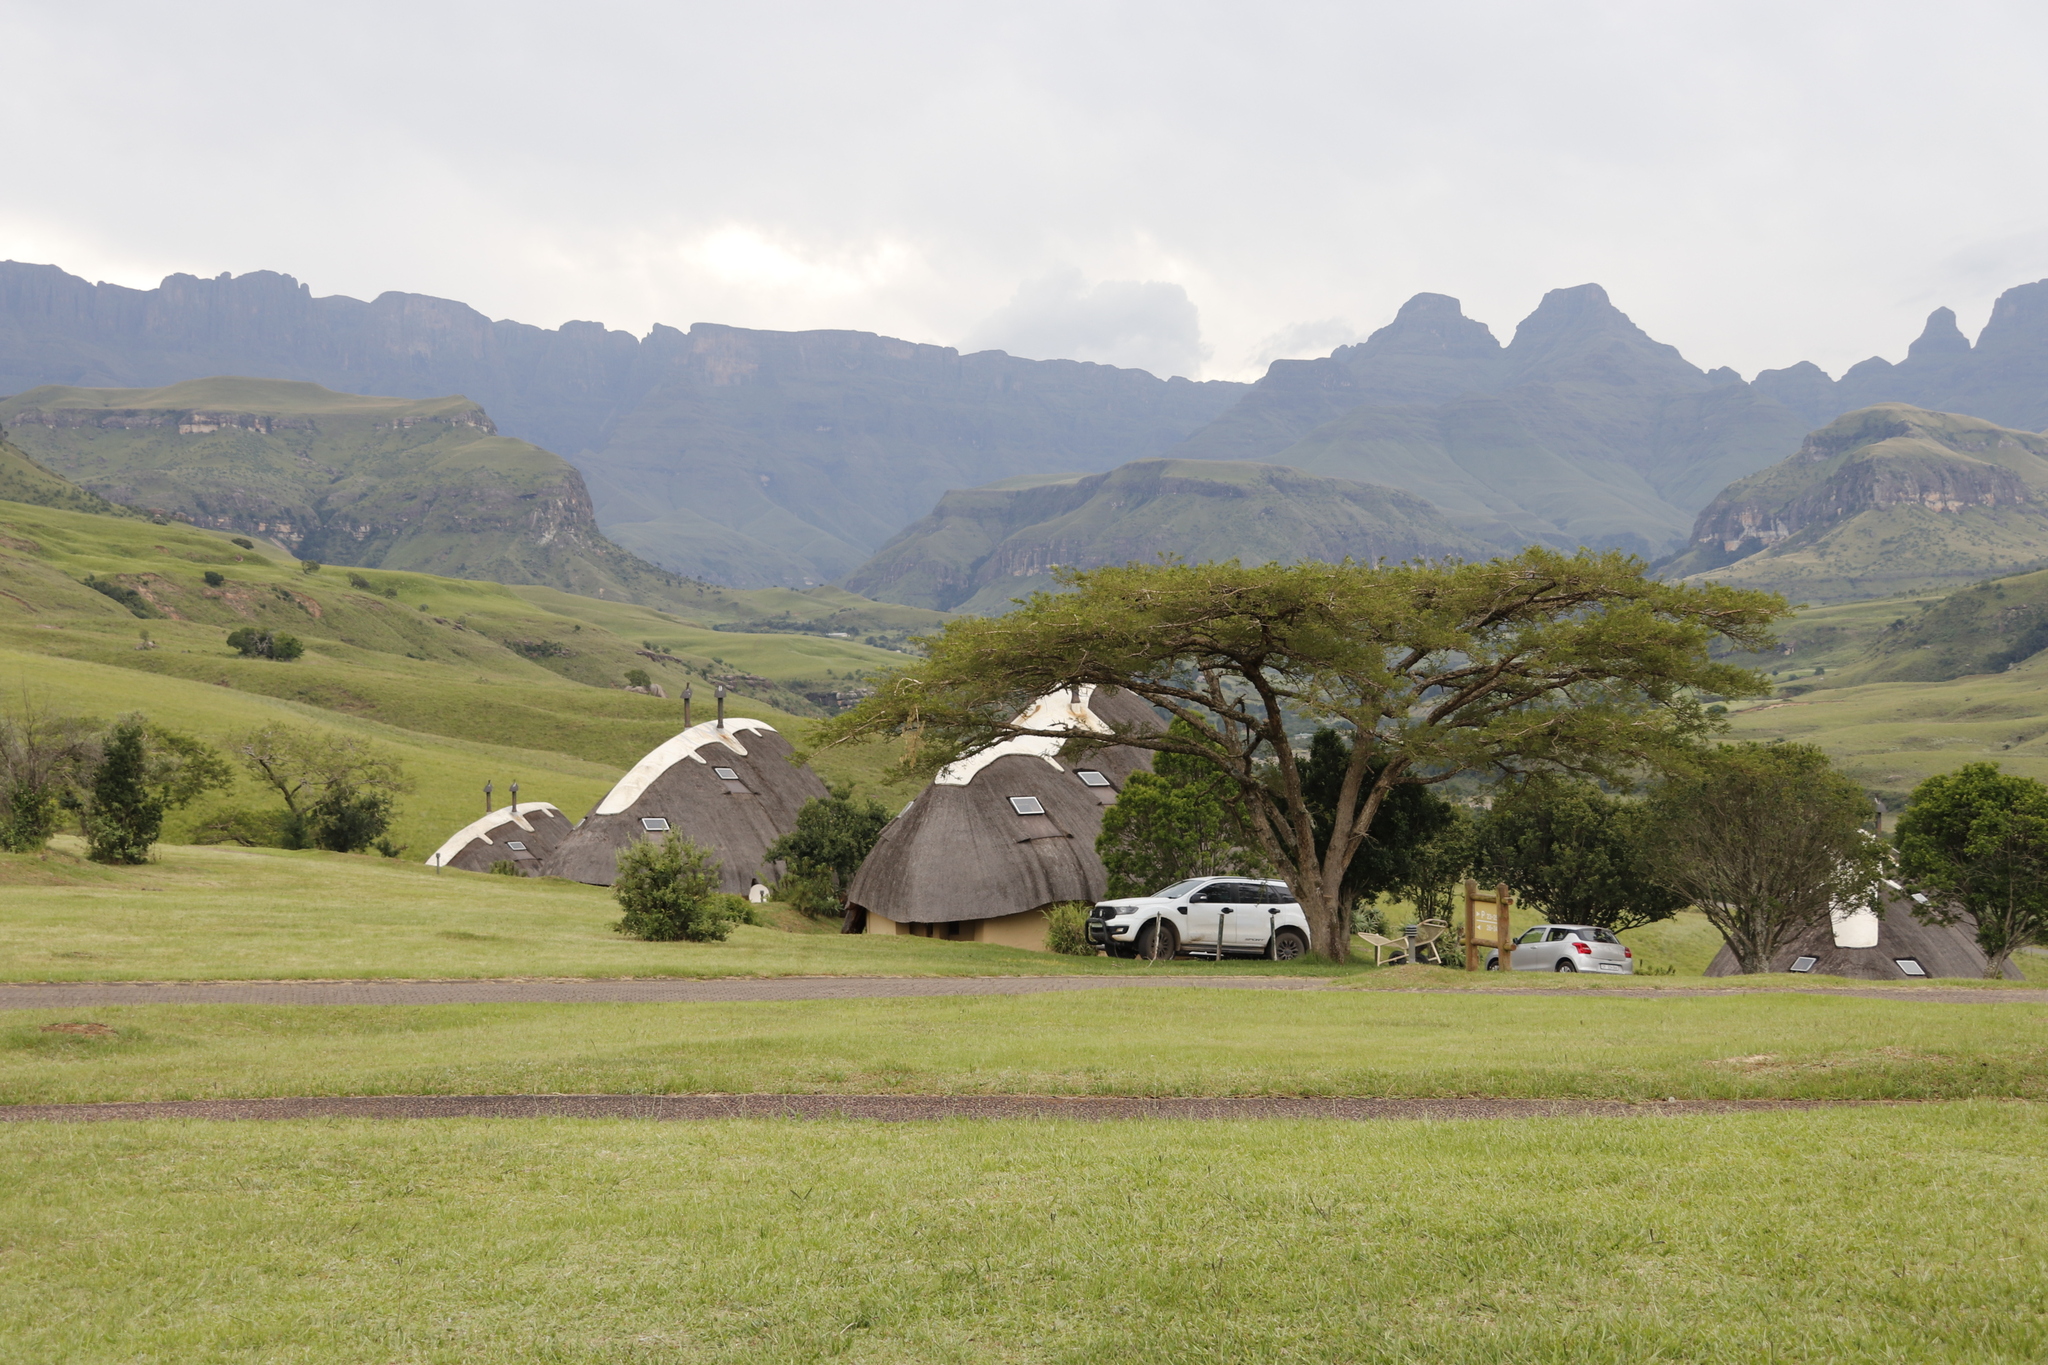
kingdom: Plantae
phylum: Tracheophyta
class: Magnoliopsida
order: Fabales
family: Fabaceae
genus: Vachellia
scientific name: Vachellia sieberiana
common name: Flat-topped thorn
